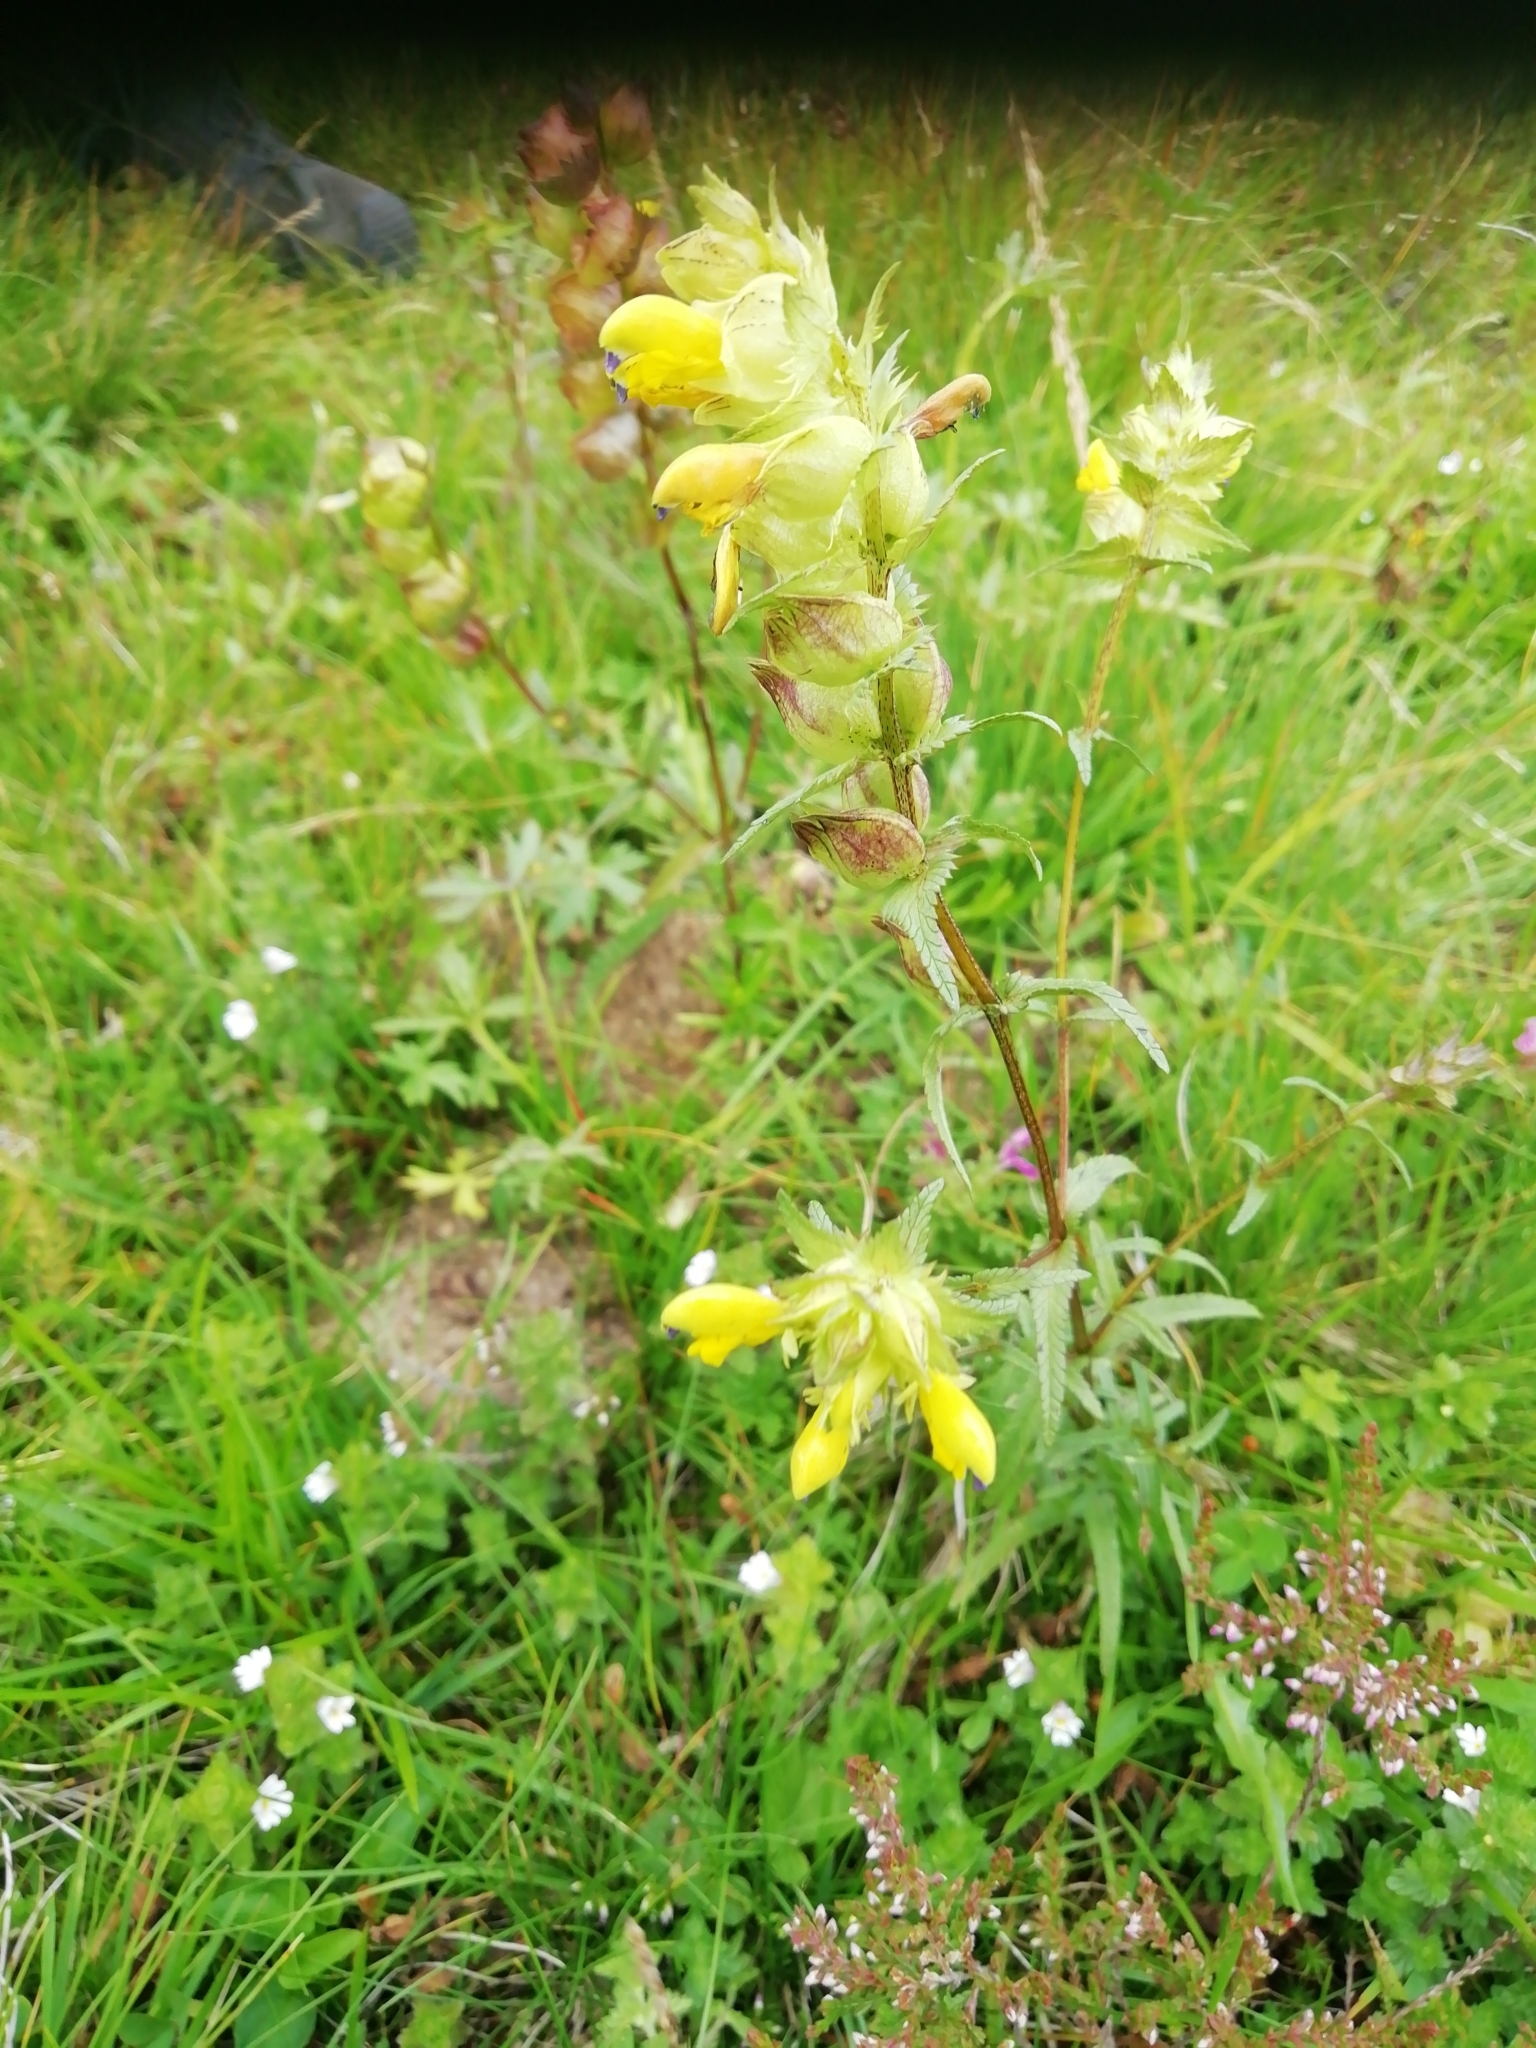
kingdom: Plantae
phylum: Tracheophyta
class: Magnoliopsida
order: Lamiales
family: Orobanchaceae
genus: Rhinanthus
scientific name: Rhinanthus serotinus
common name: Late-flowering yellow rattle
